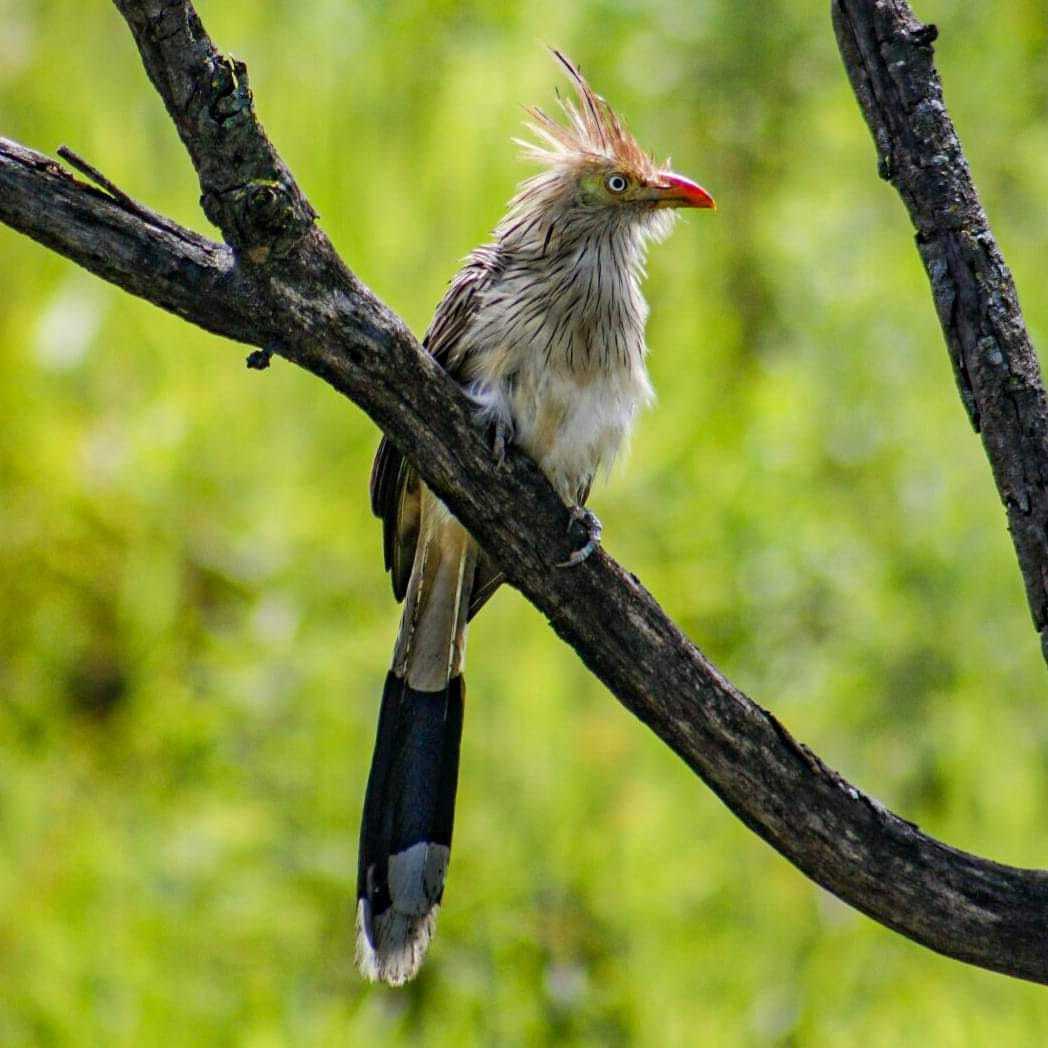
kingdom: Animalia
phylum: Chordata
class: Aves
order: Cuculiformes
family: Cuculidae
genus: Guira
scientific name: Guira guira
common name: Guira cuckoo
